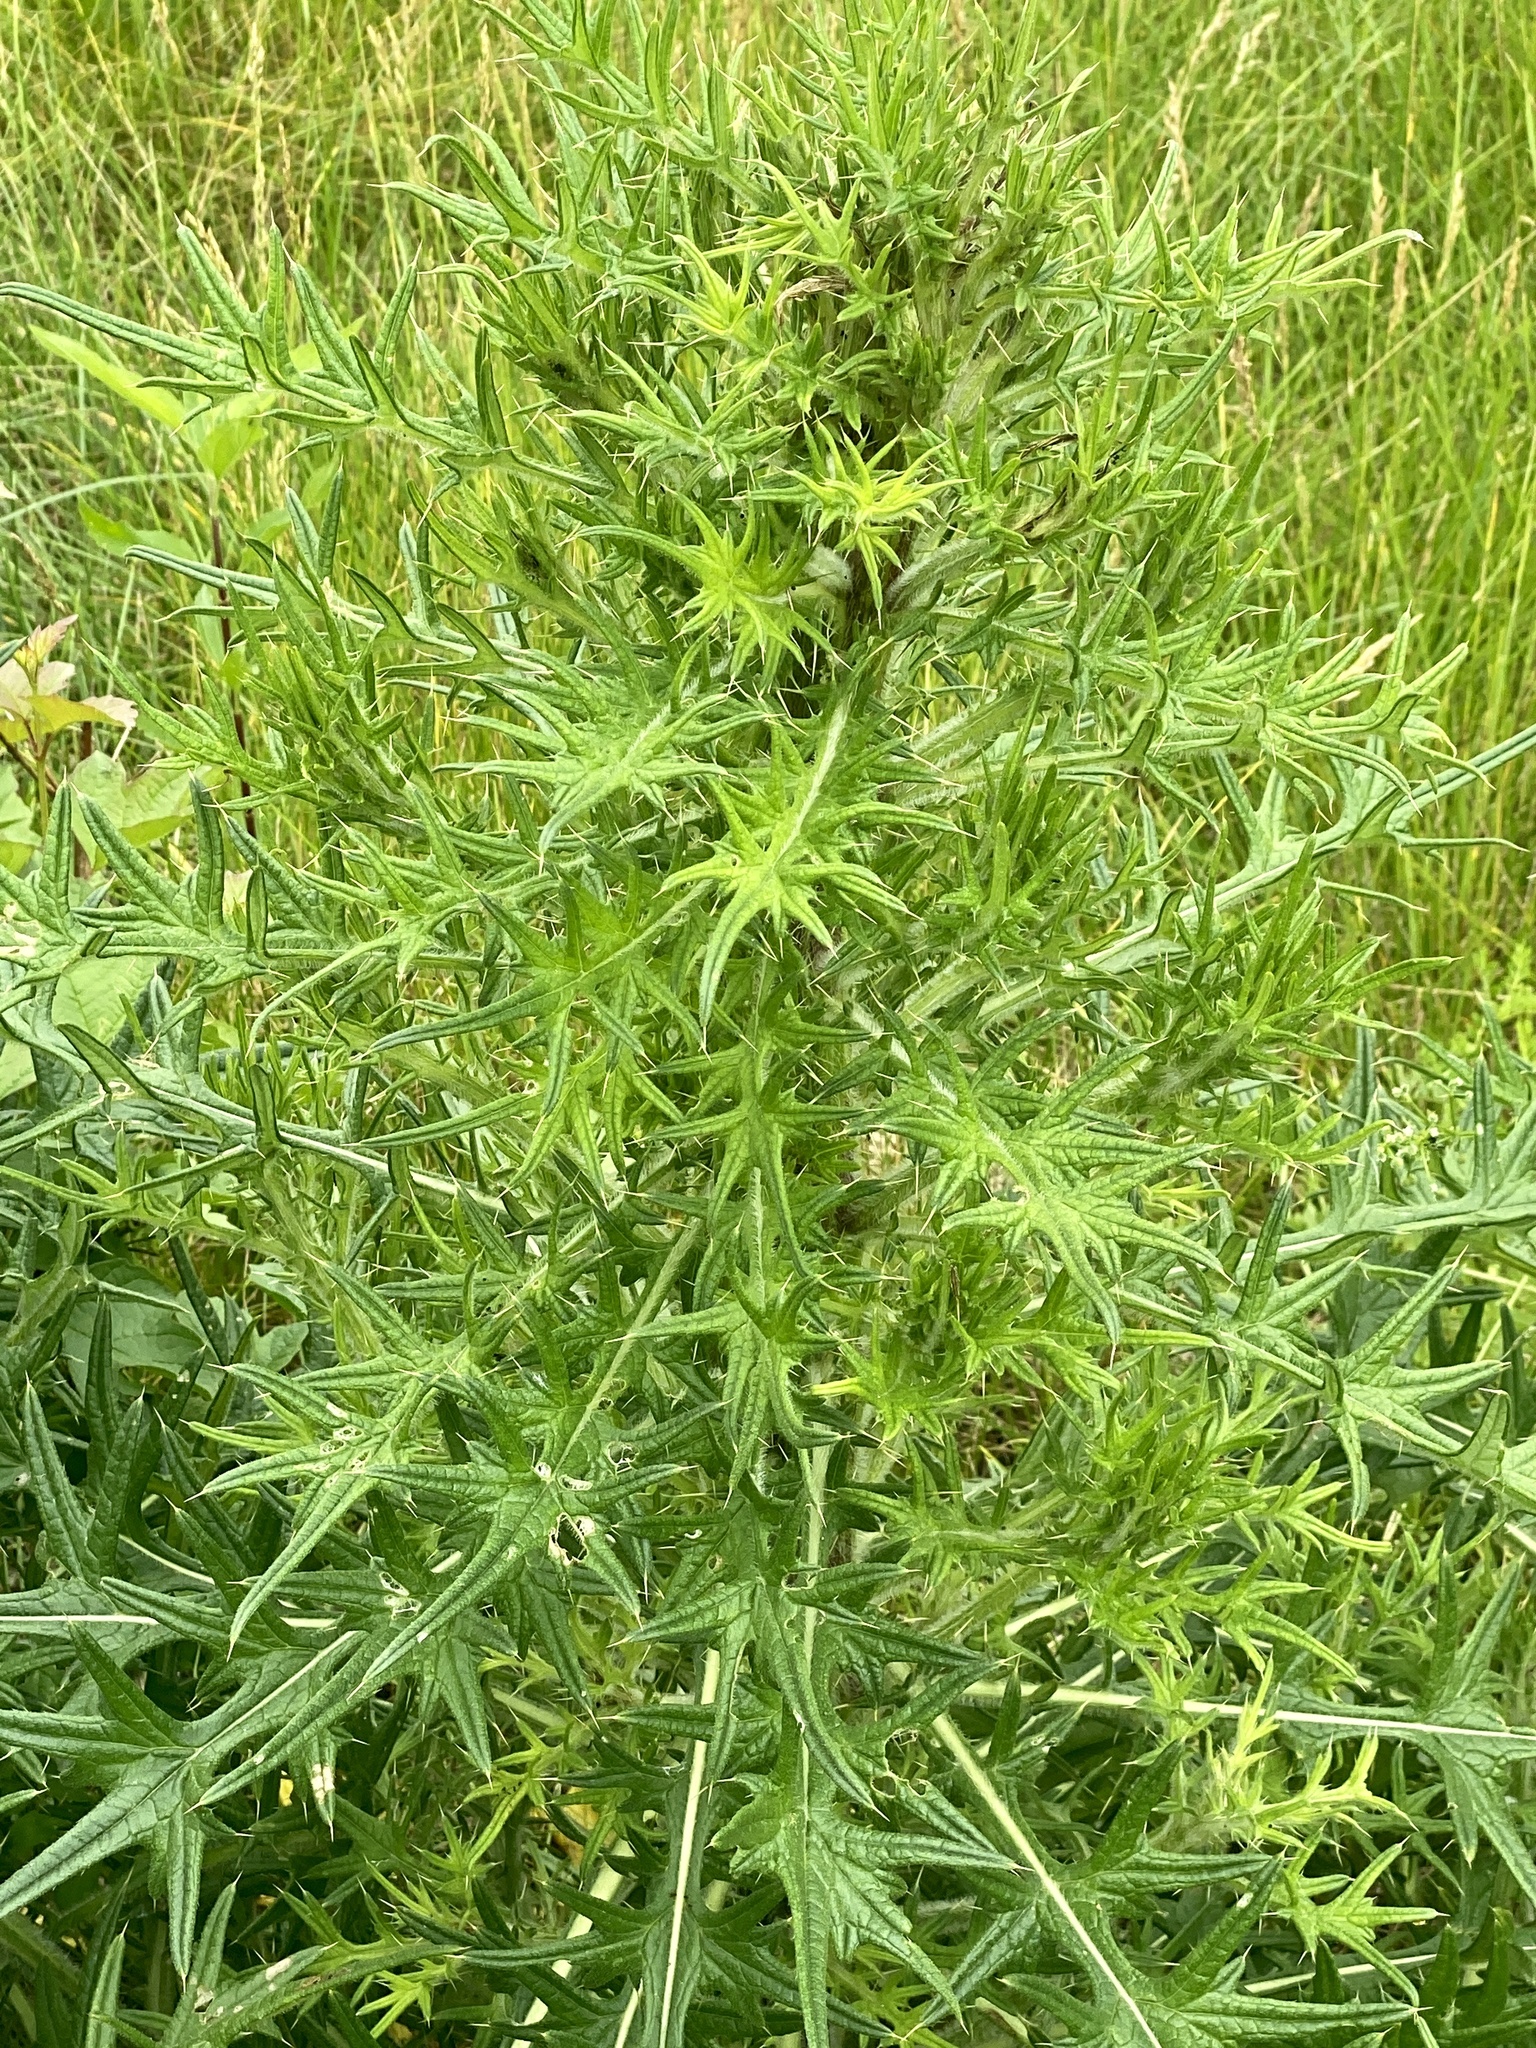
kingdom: Plantae
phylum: Tracheophyta
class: Magnoliopsida
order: Asterales
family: Asteraceae
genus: Cirsium
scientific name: Cirsium vulgare
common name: Bull thistle
